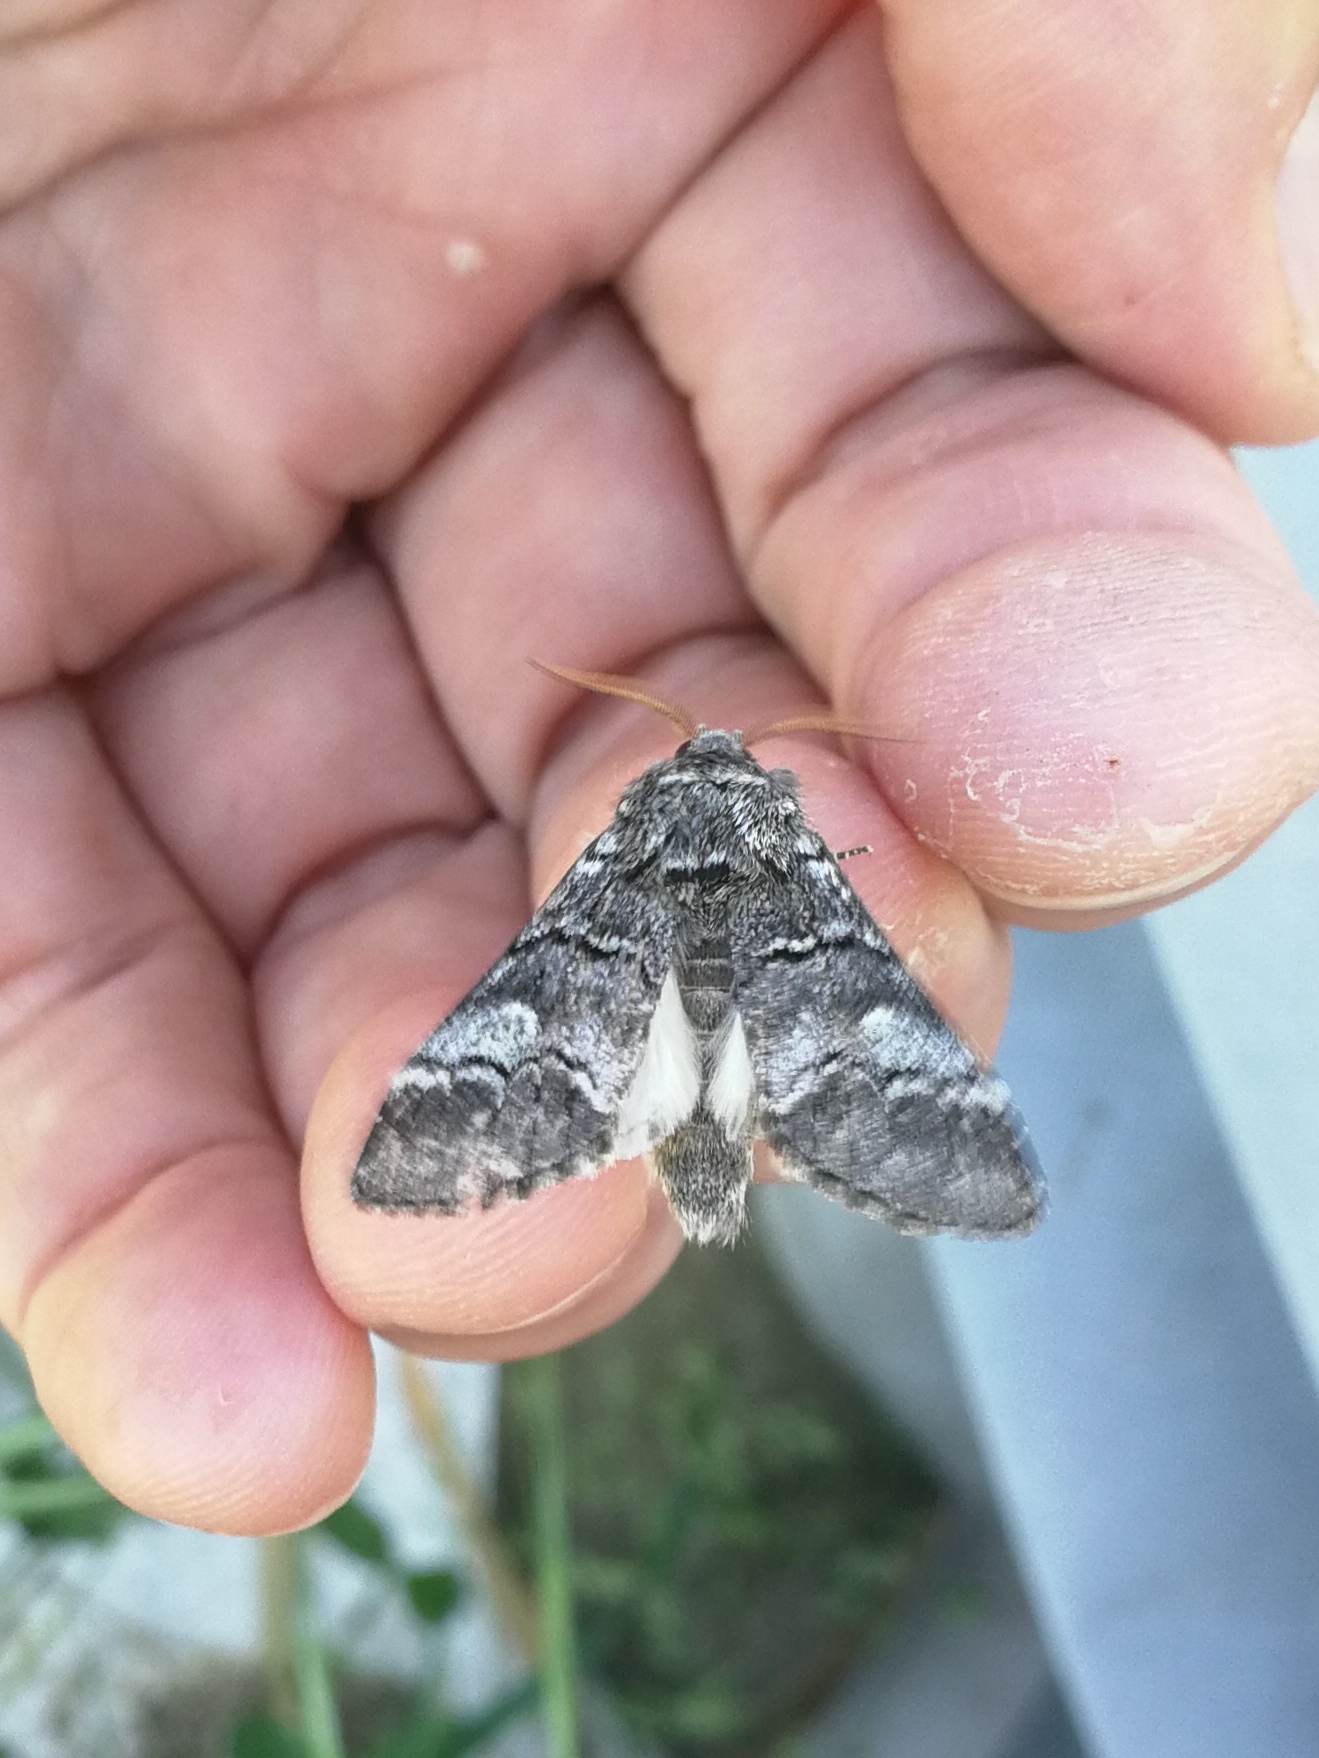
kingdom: Animalia
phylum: Arthropoda
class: Insecta
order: Lepidoptera
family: Notodontidae
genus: Drymonia
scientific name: Drymonia querna
